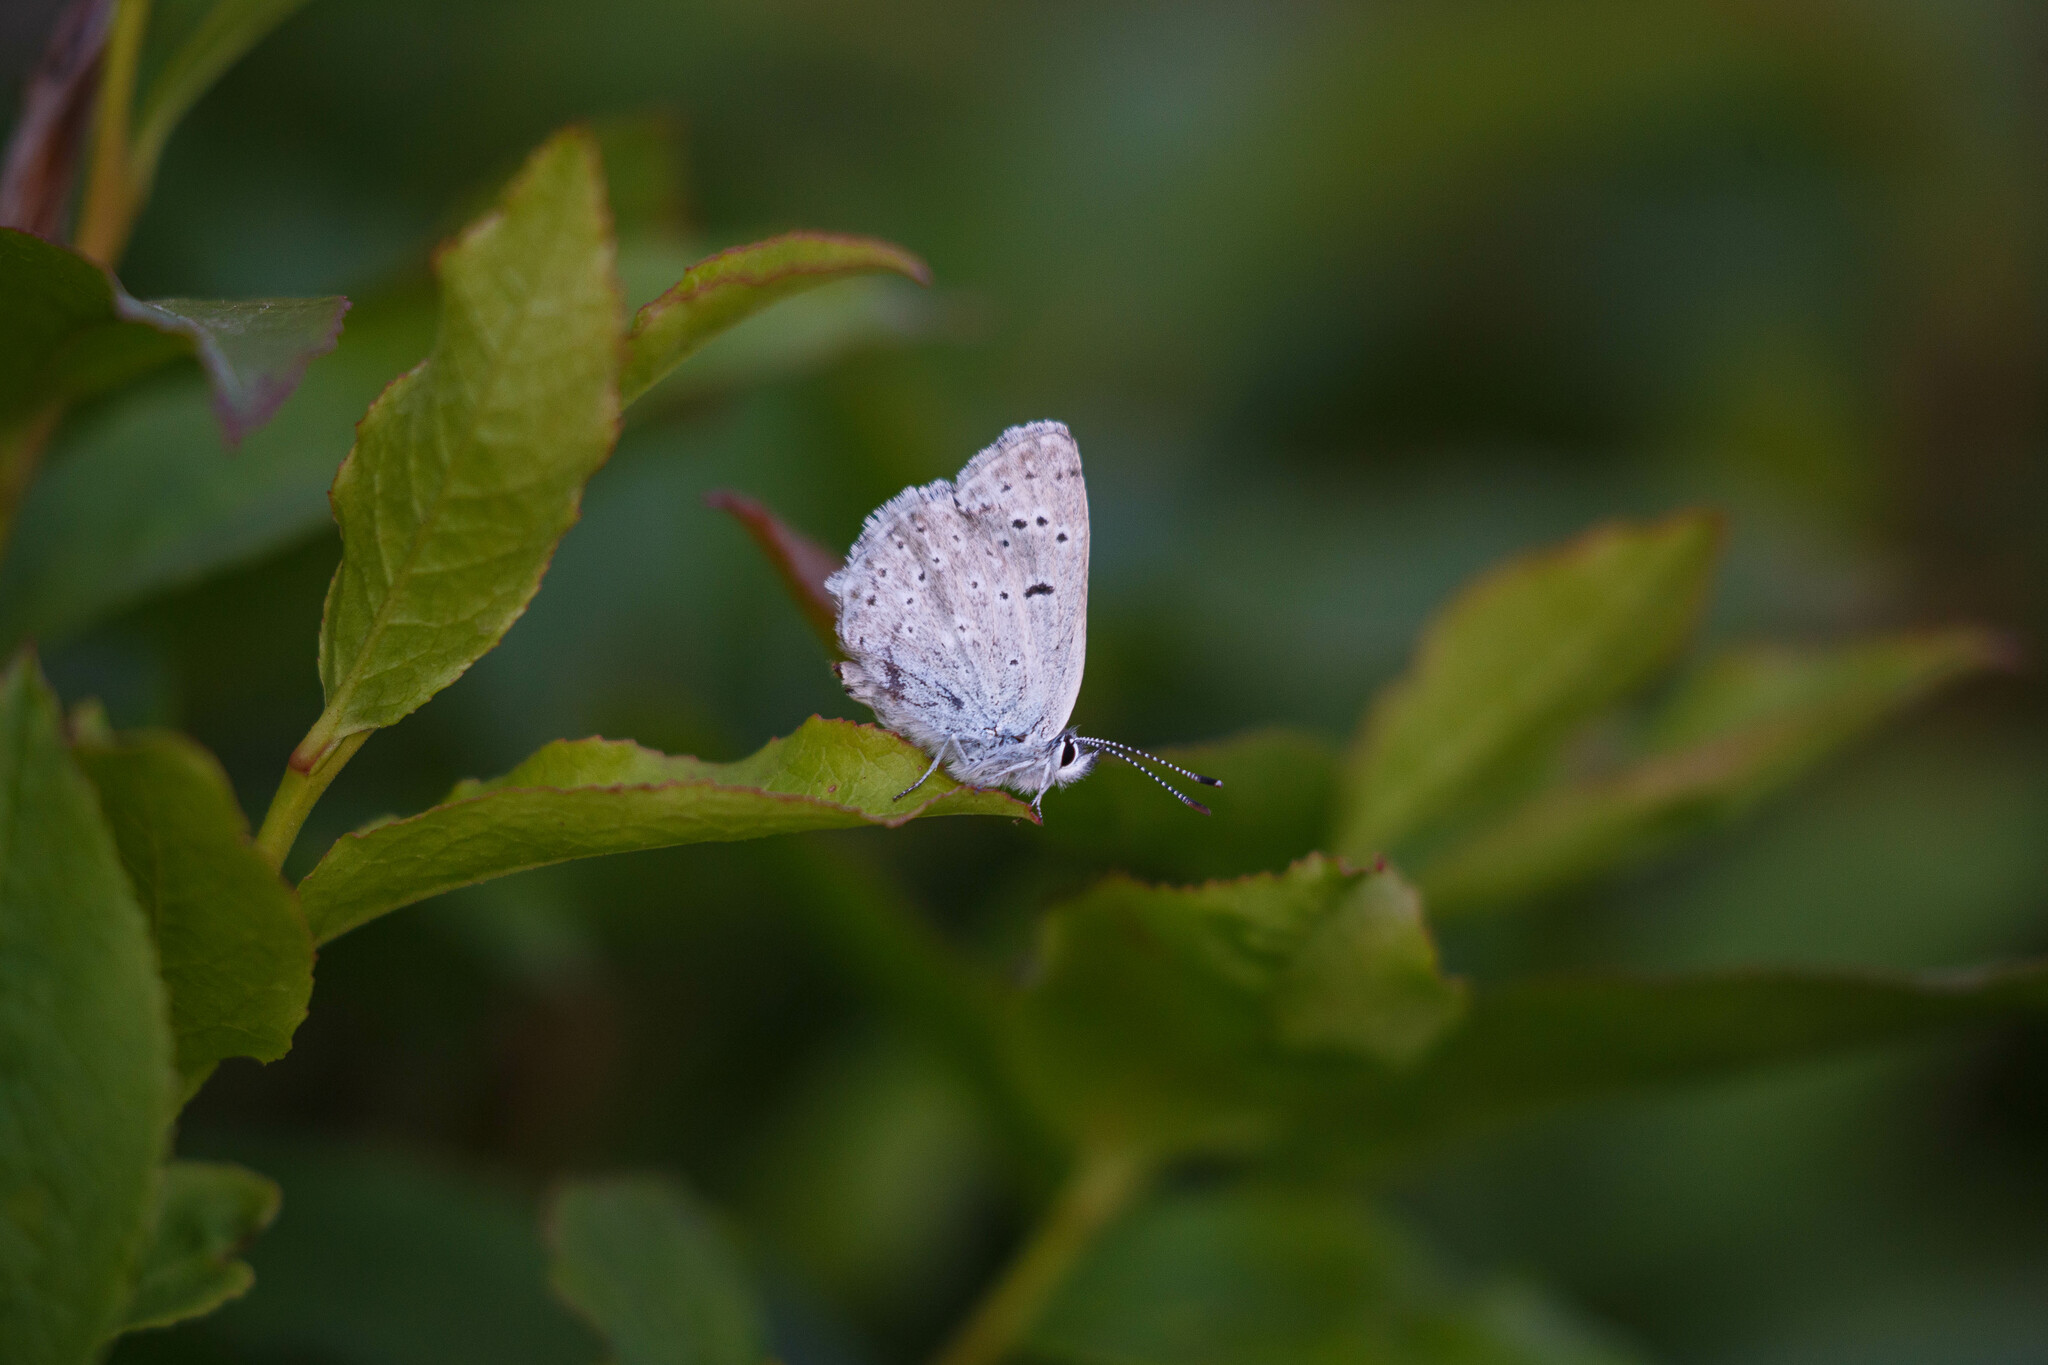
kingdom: Animalia
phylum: Arthropoda
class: Insecta
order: Lepidoptera
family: Lycaenidae
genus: Icaricia
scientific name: Icaricia icarioides
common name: Boisduval's blue
